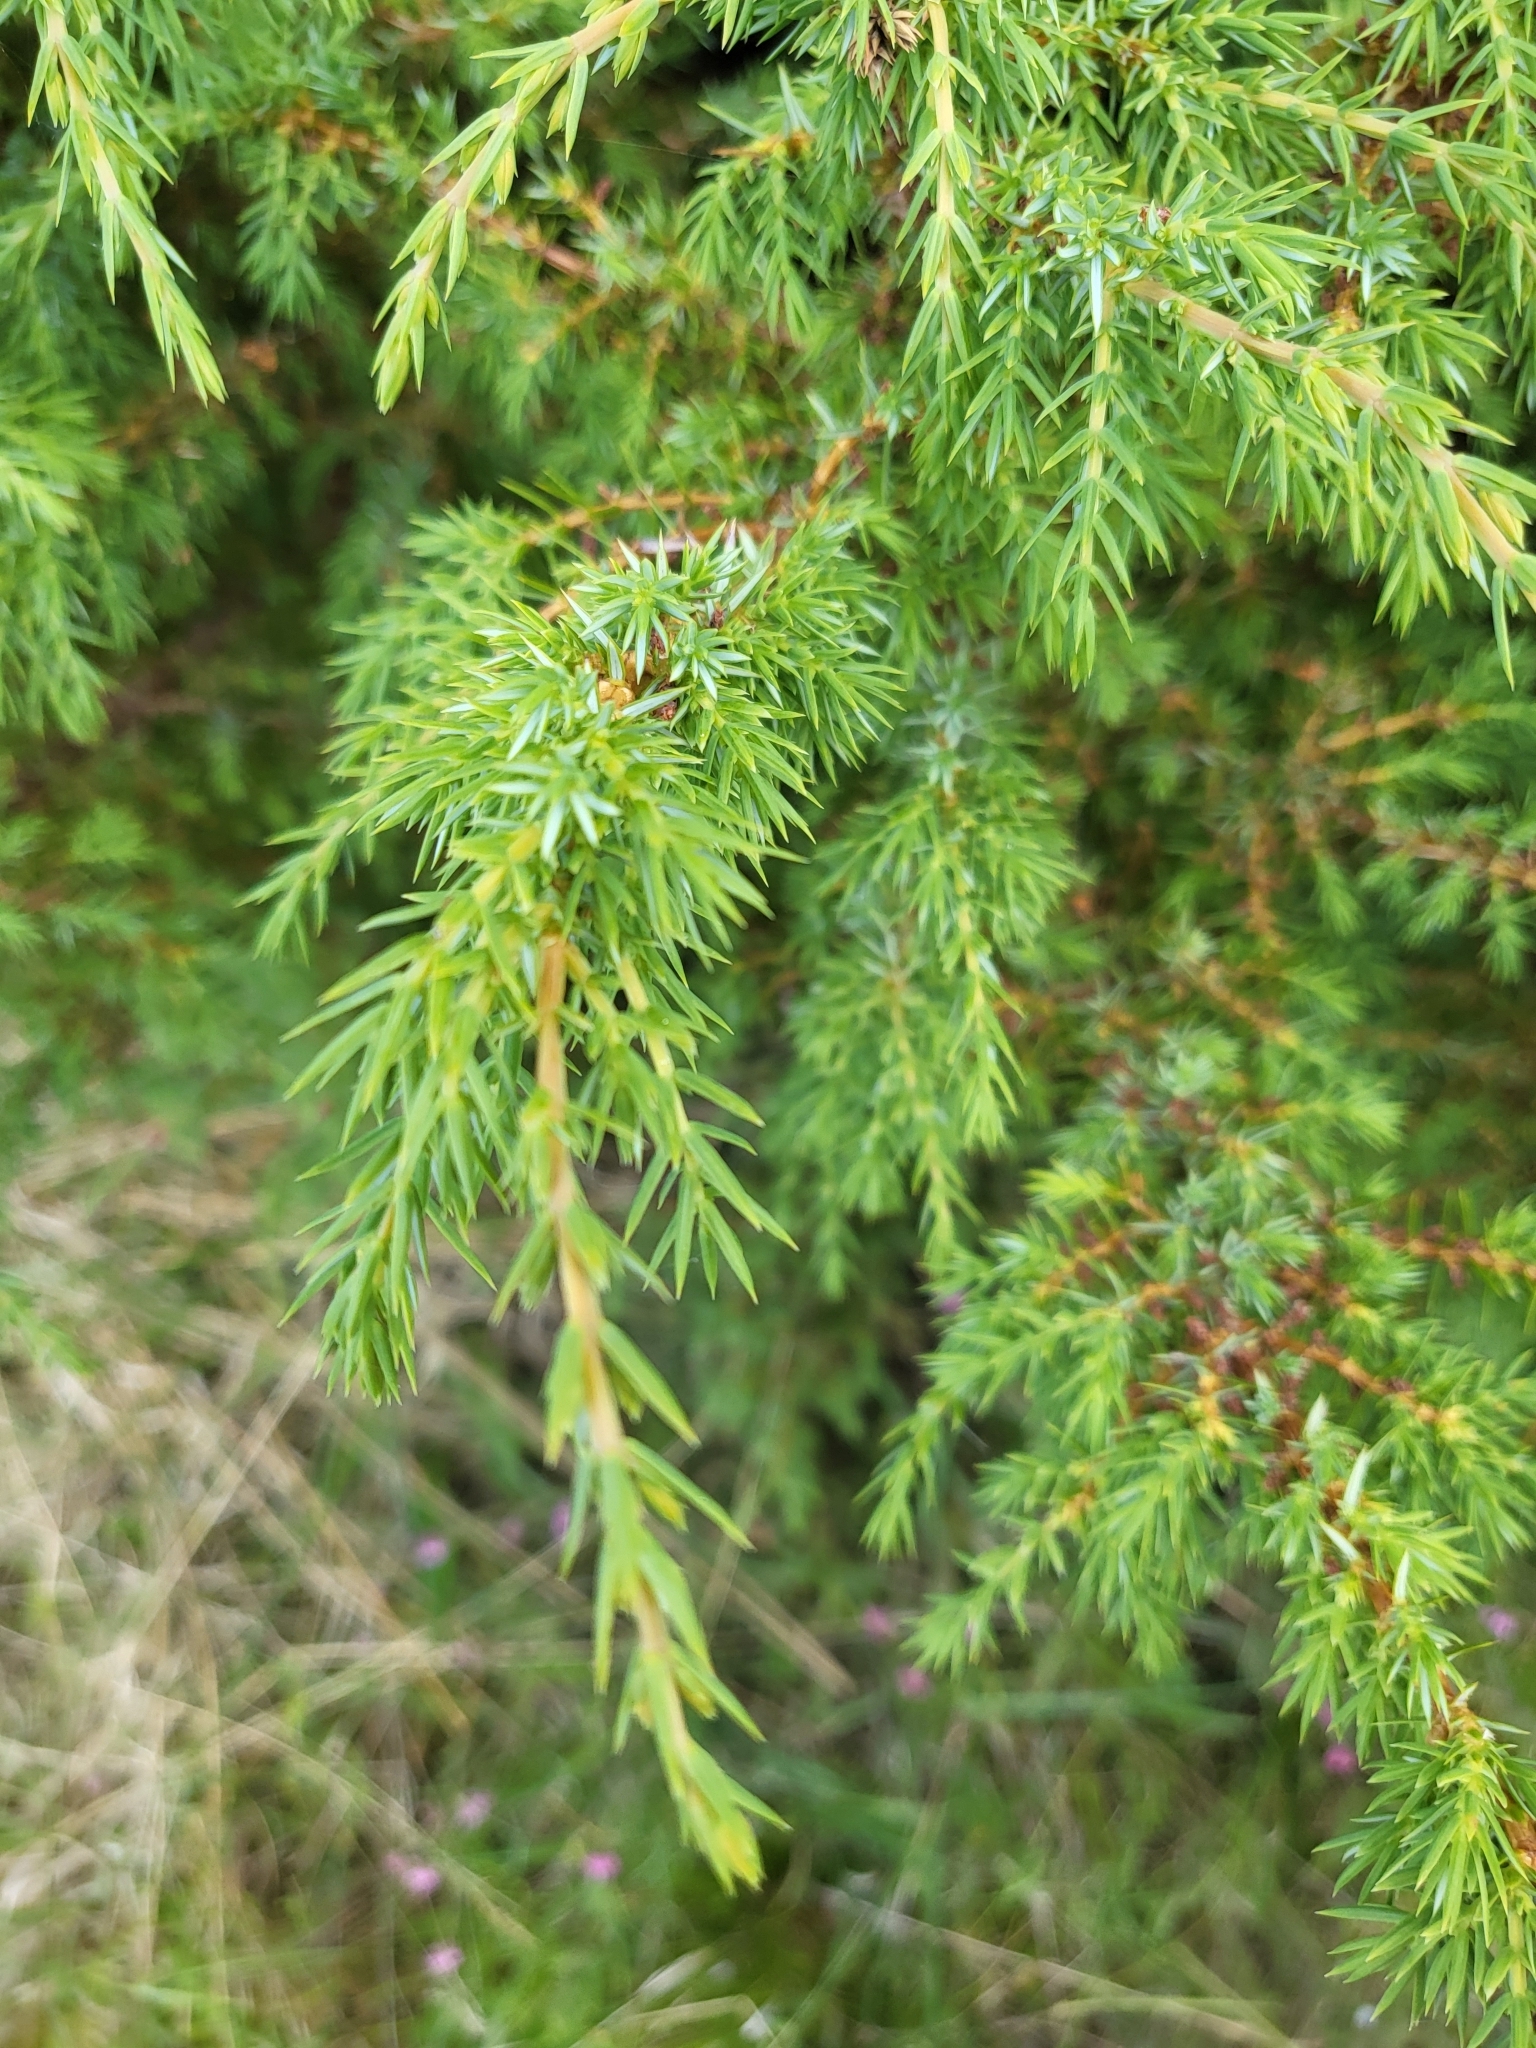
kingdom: Plantae
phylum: Tracheophyta
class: Pinopsida
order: Pinales
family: Cupressaceae
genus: Juniperus
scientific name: Juniperus communis
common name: Common juniper
